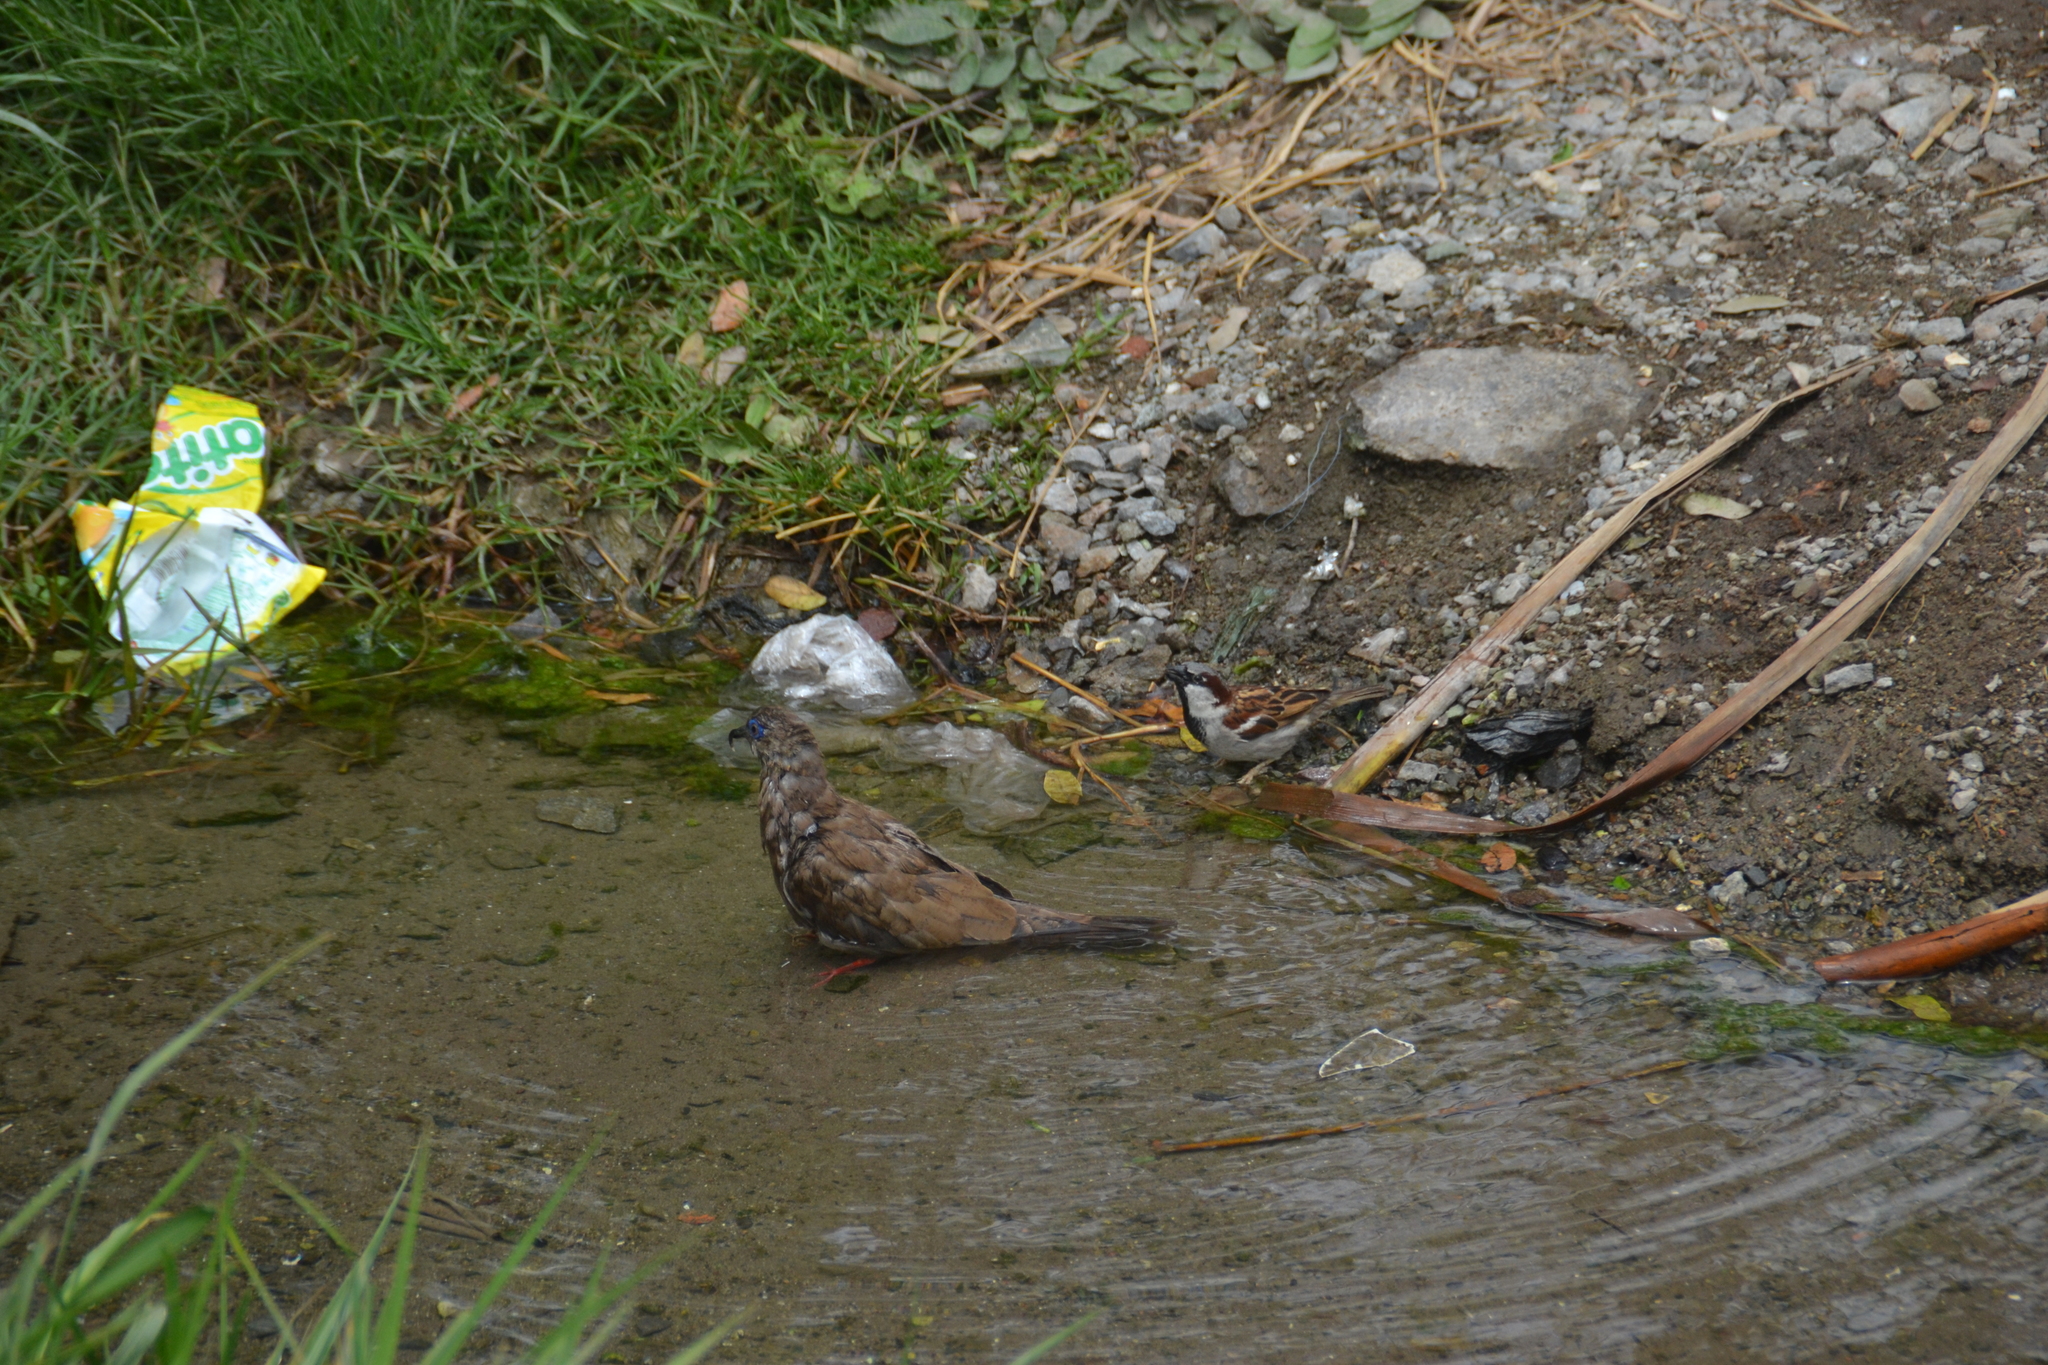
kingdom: Animalia
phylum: Chordata
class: Aves
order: Columbiformes
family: Columbidae
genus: Zenaida
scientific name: Zenaida meloda
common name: West peruvian dove
